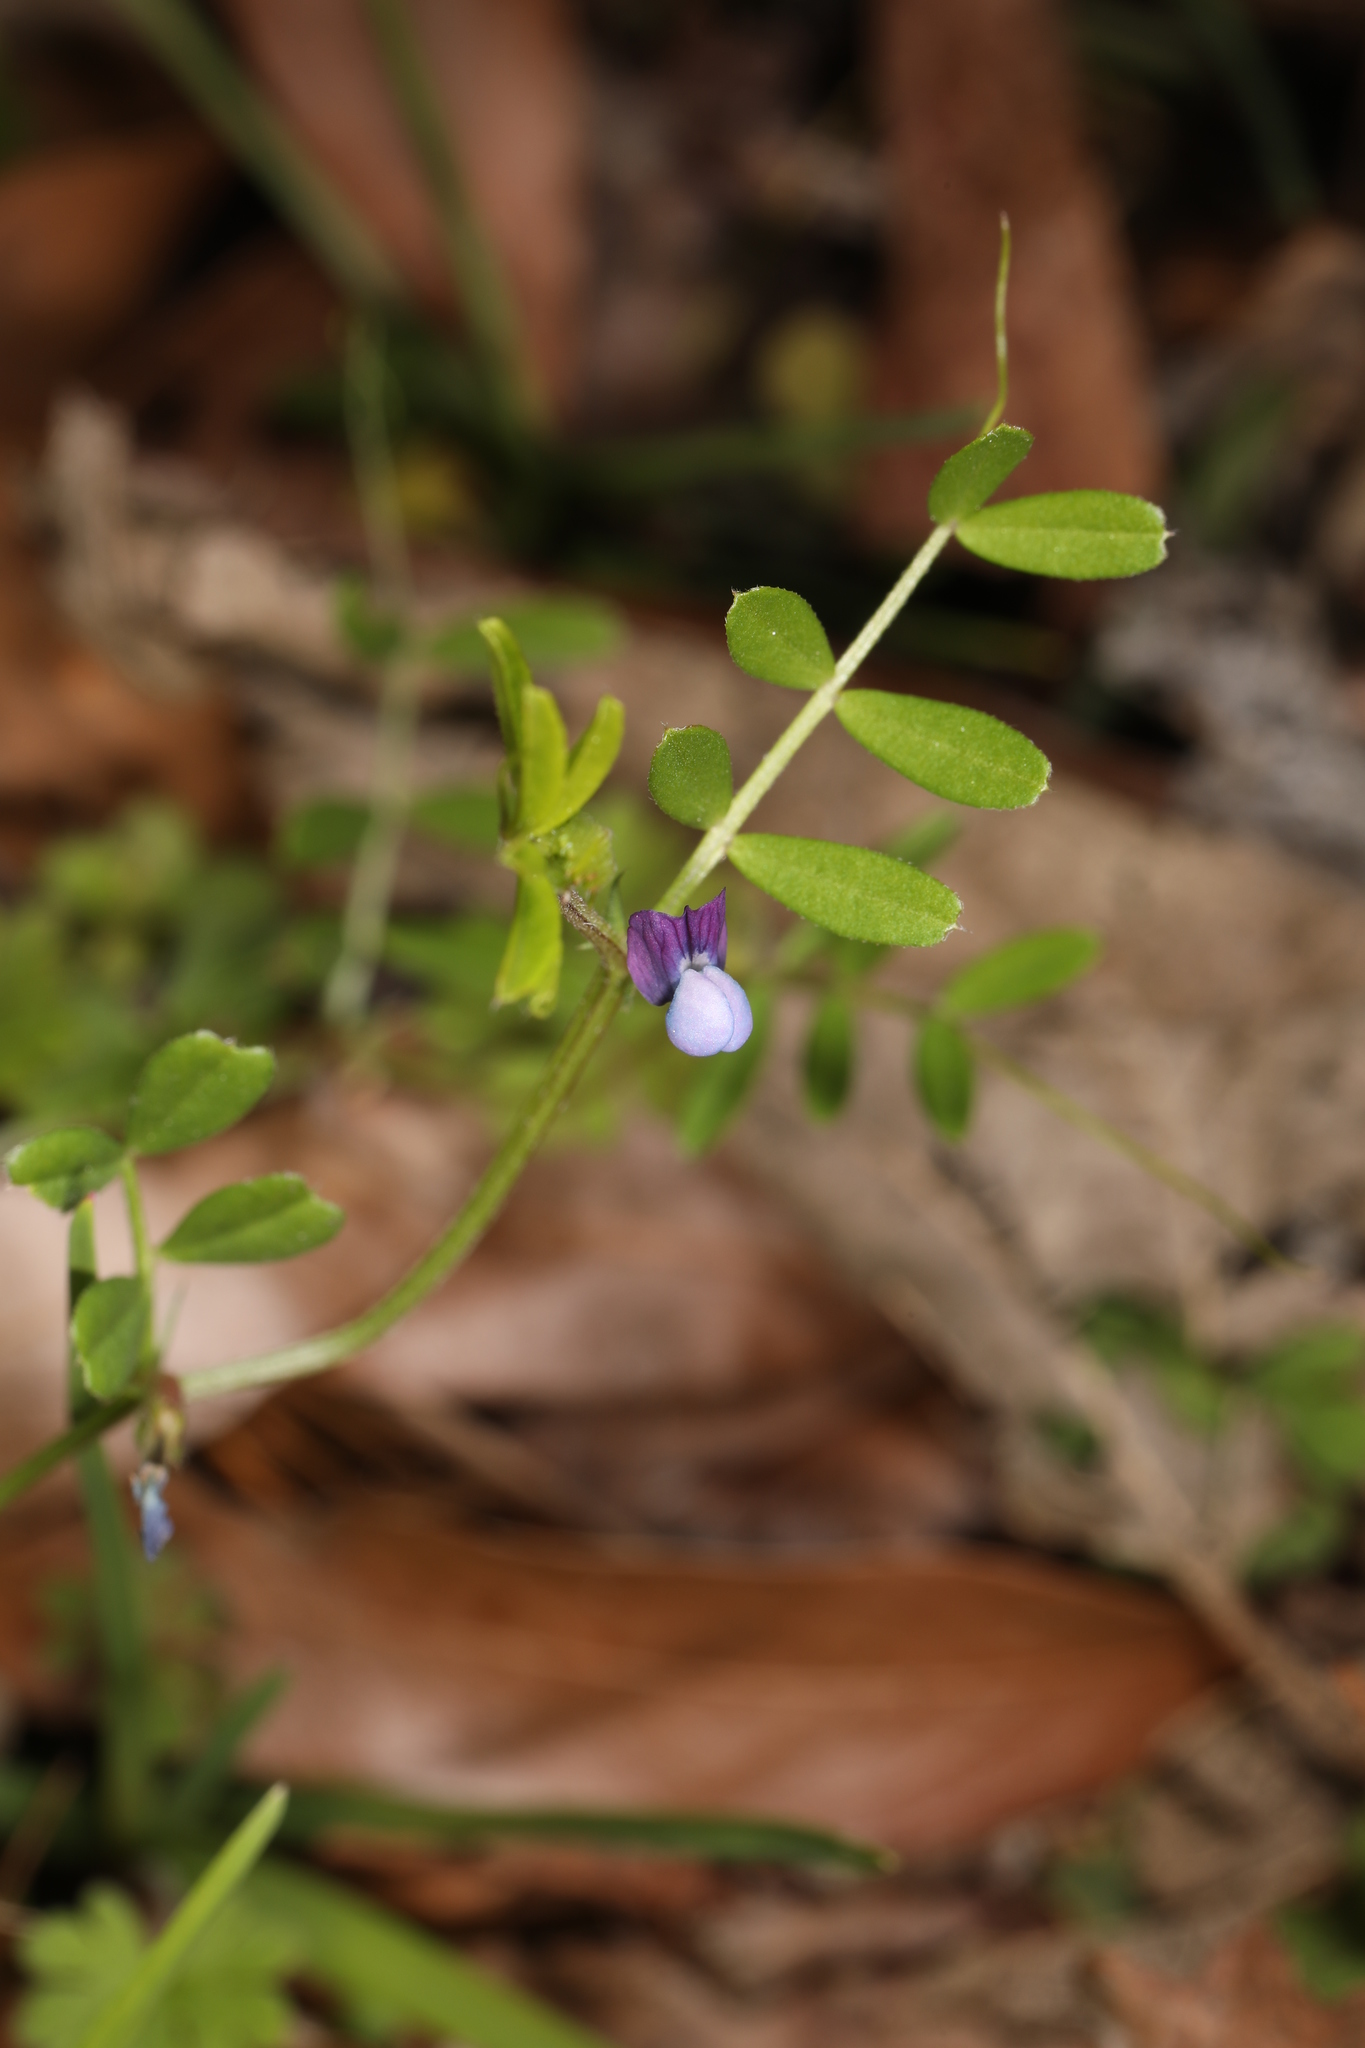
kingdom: Plantae
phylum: Tracheophyta
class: Magnoliopsida
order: Fabales
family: Fabaceae
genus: Vicia
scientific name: Vicia lathyroides
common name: Spring vetch
